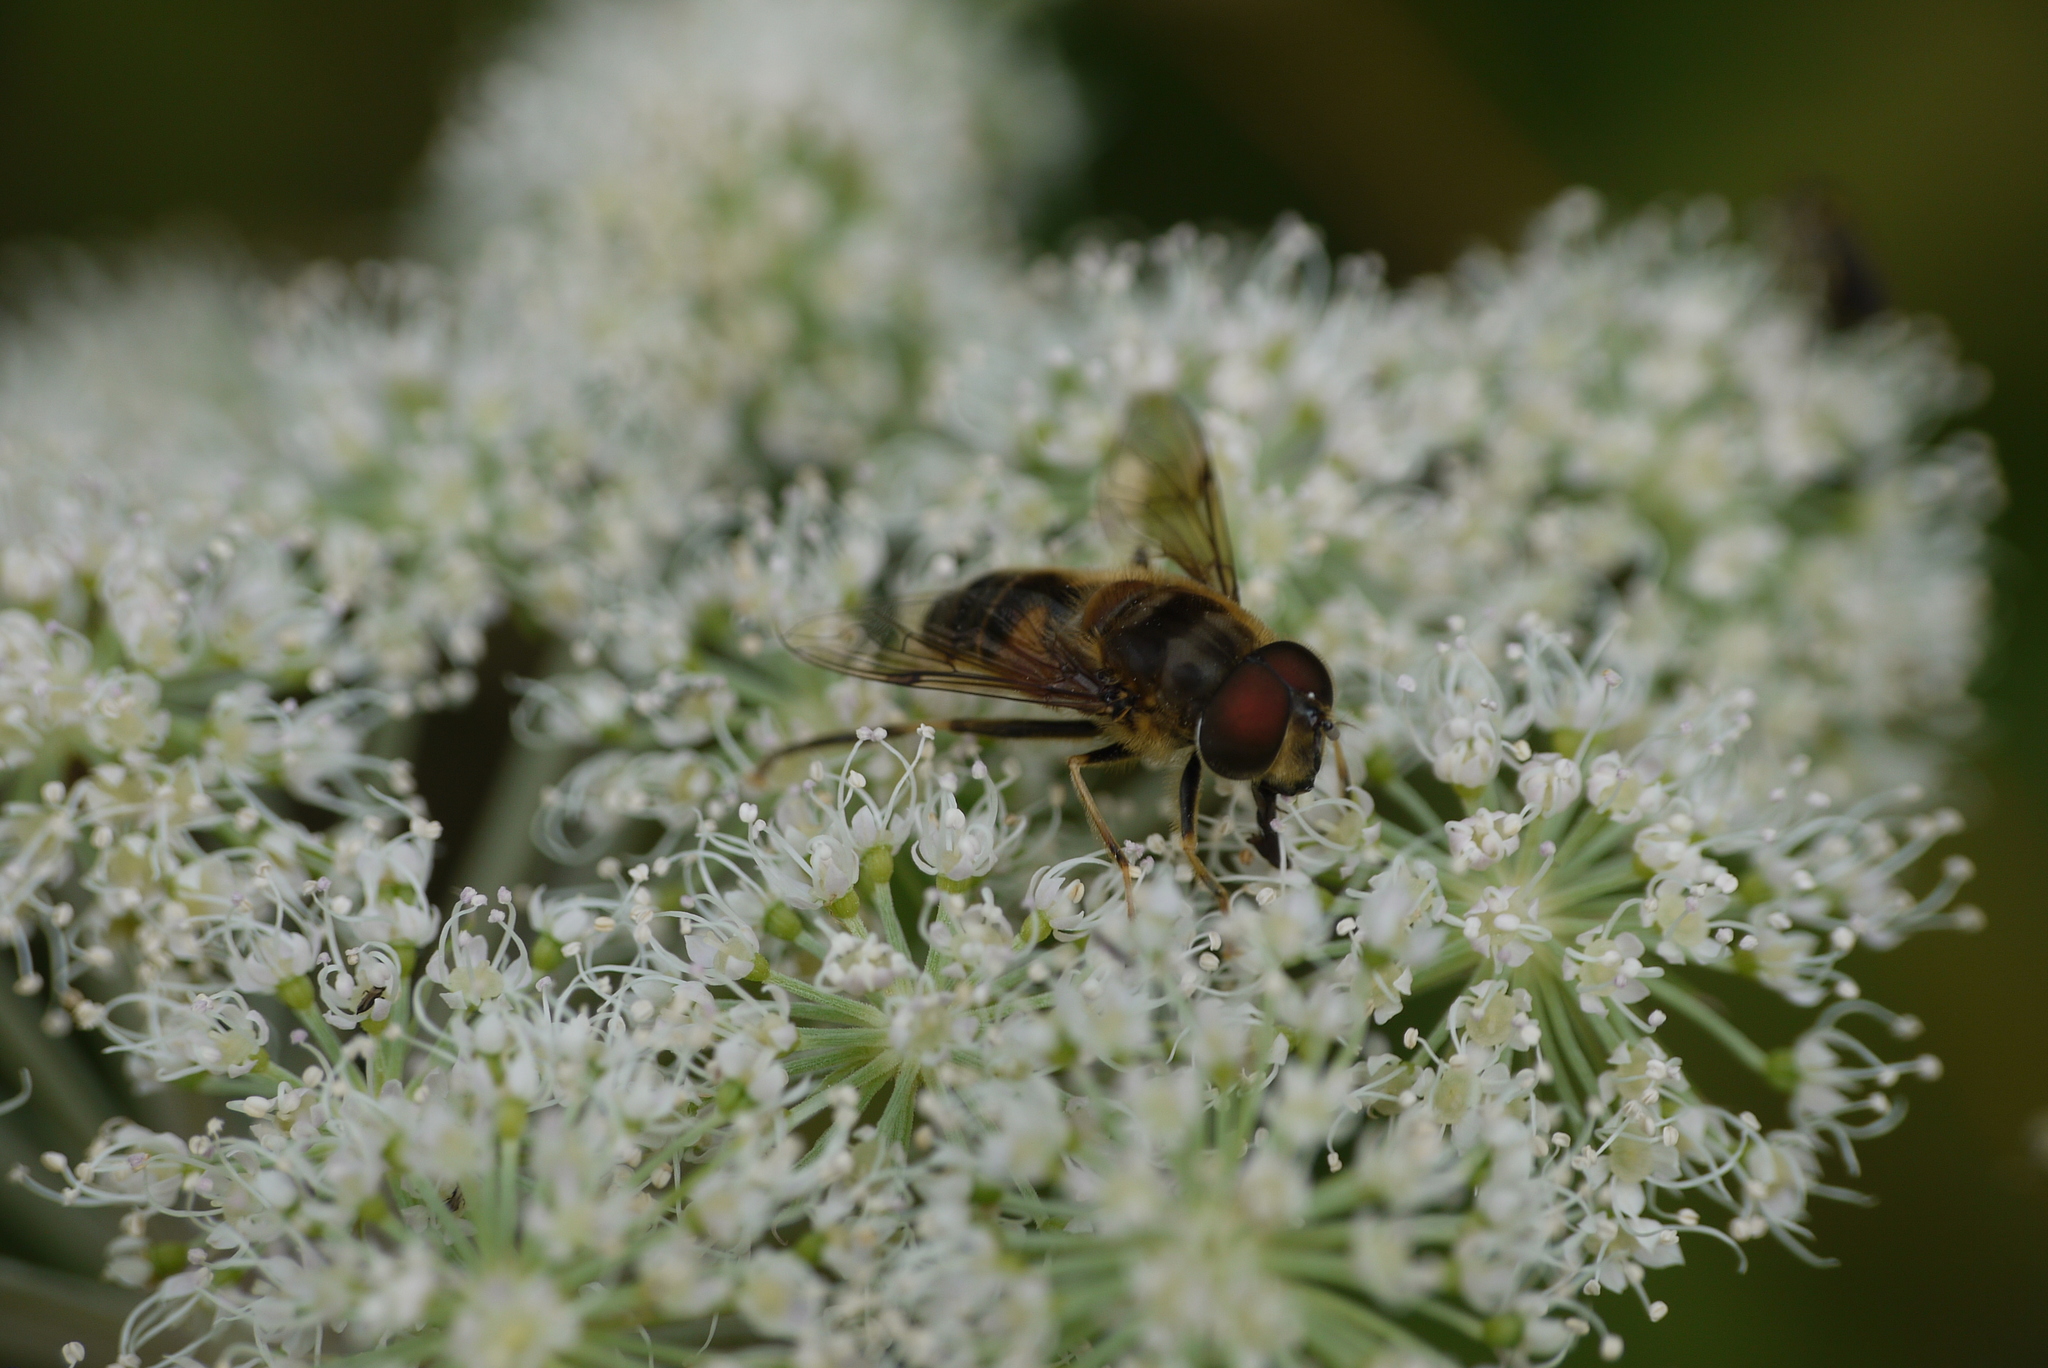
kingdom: Animalia
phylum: Arthropoda
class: Insecta
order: Diptera
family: Syrphidae
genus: Eristalis
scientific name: Eristalis pertinax
